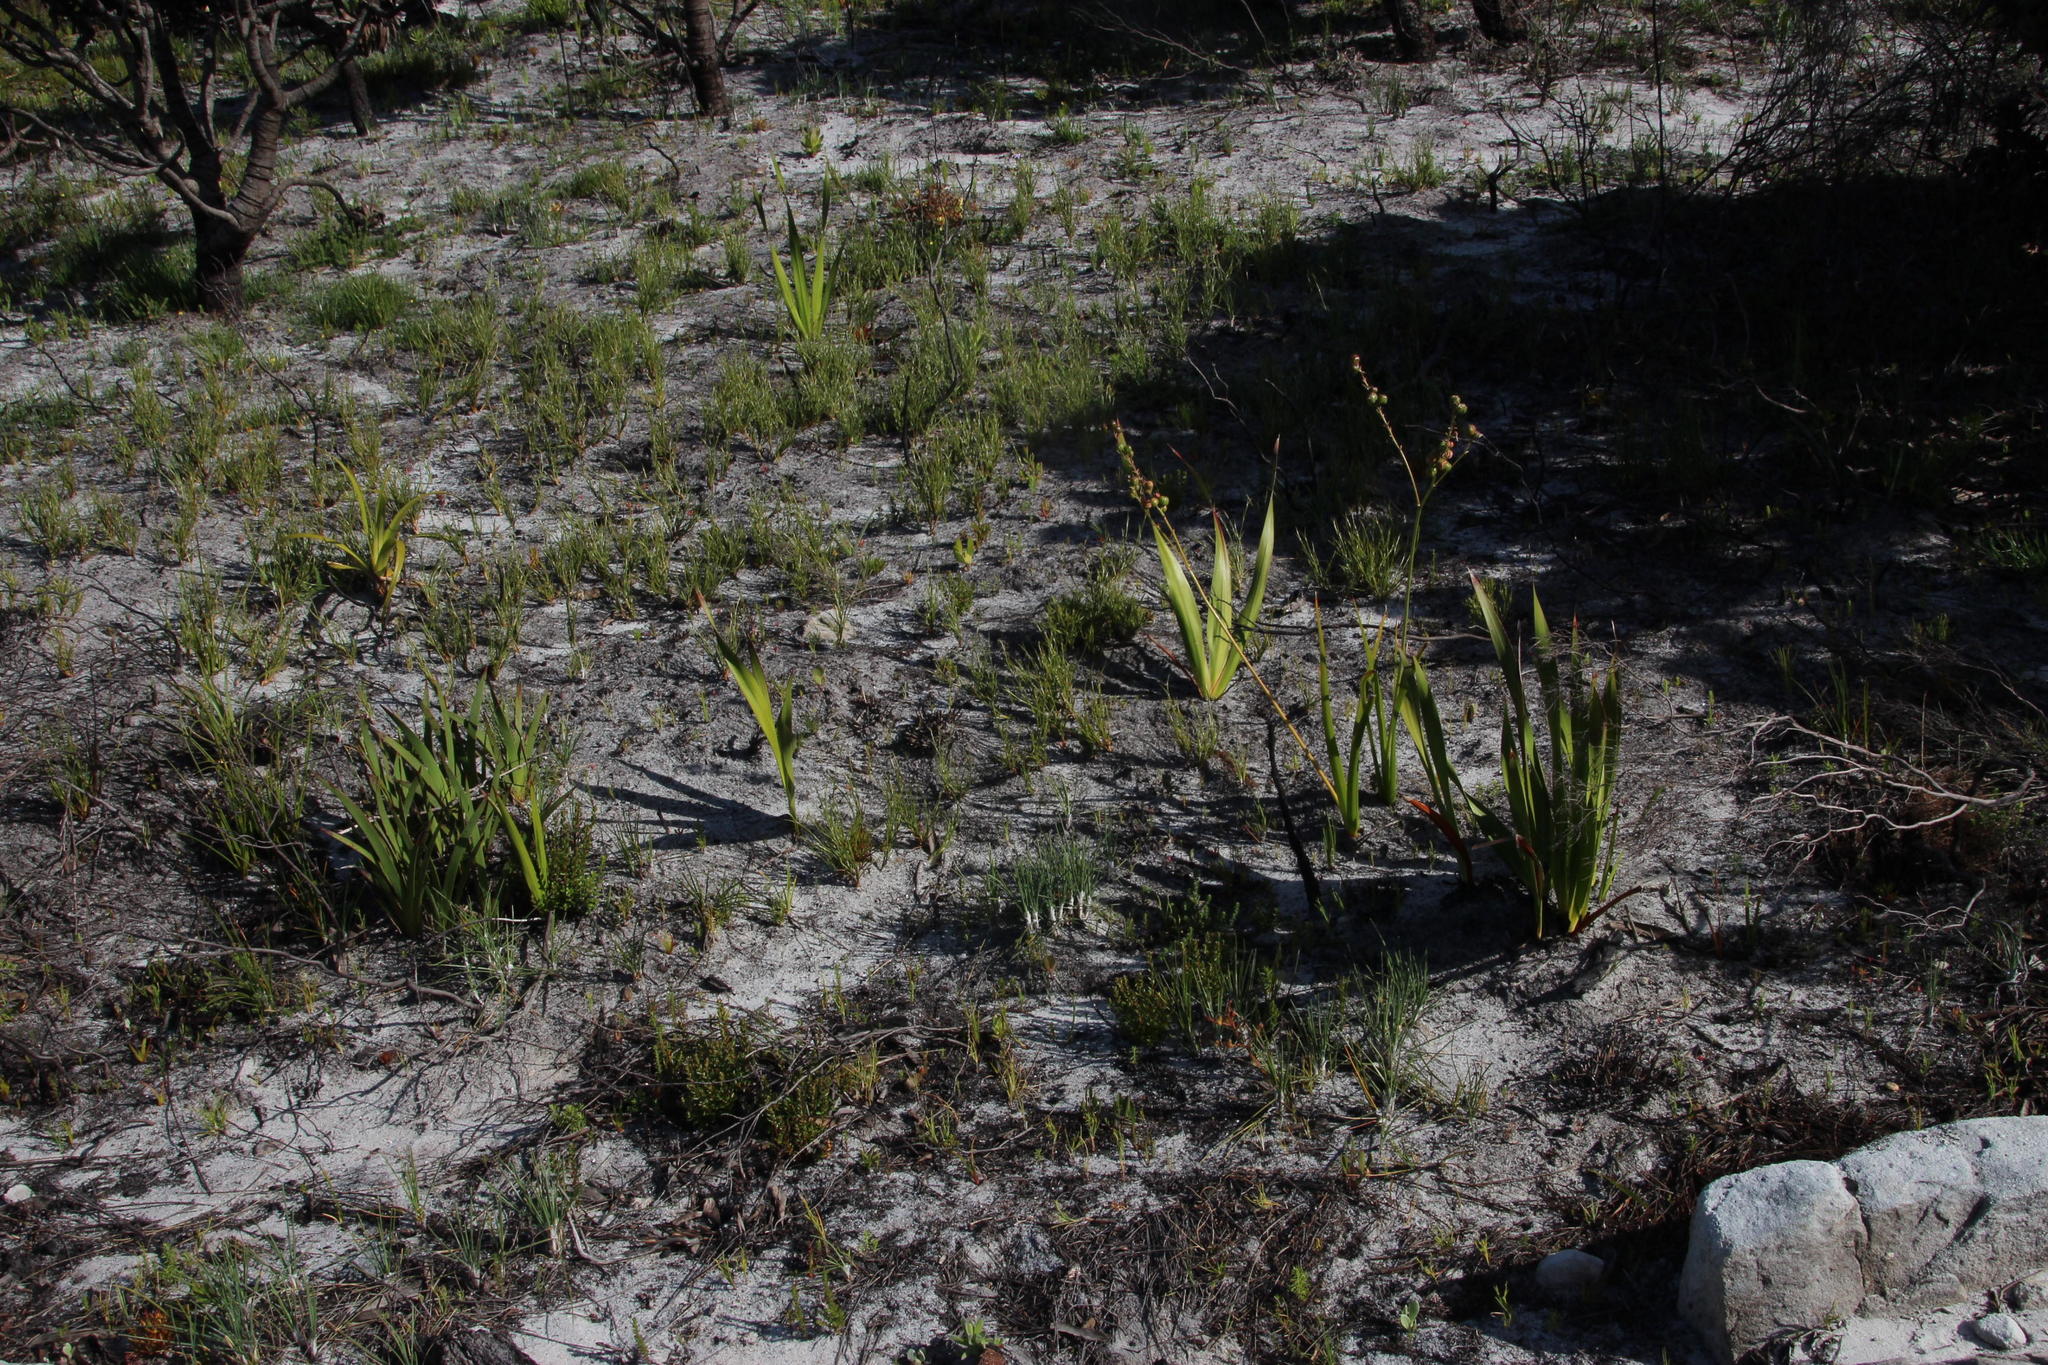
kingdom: Plantae
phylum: Tracheophyta
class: Liliopsida
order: Poales
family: Cyperaceae
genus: Ficinia
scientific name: Ficinia paradoxa
